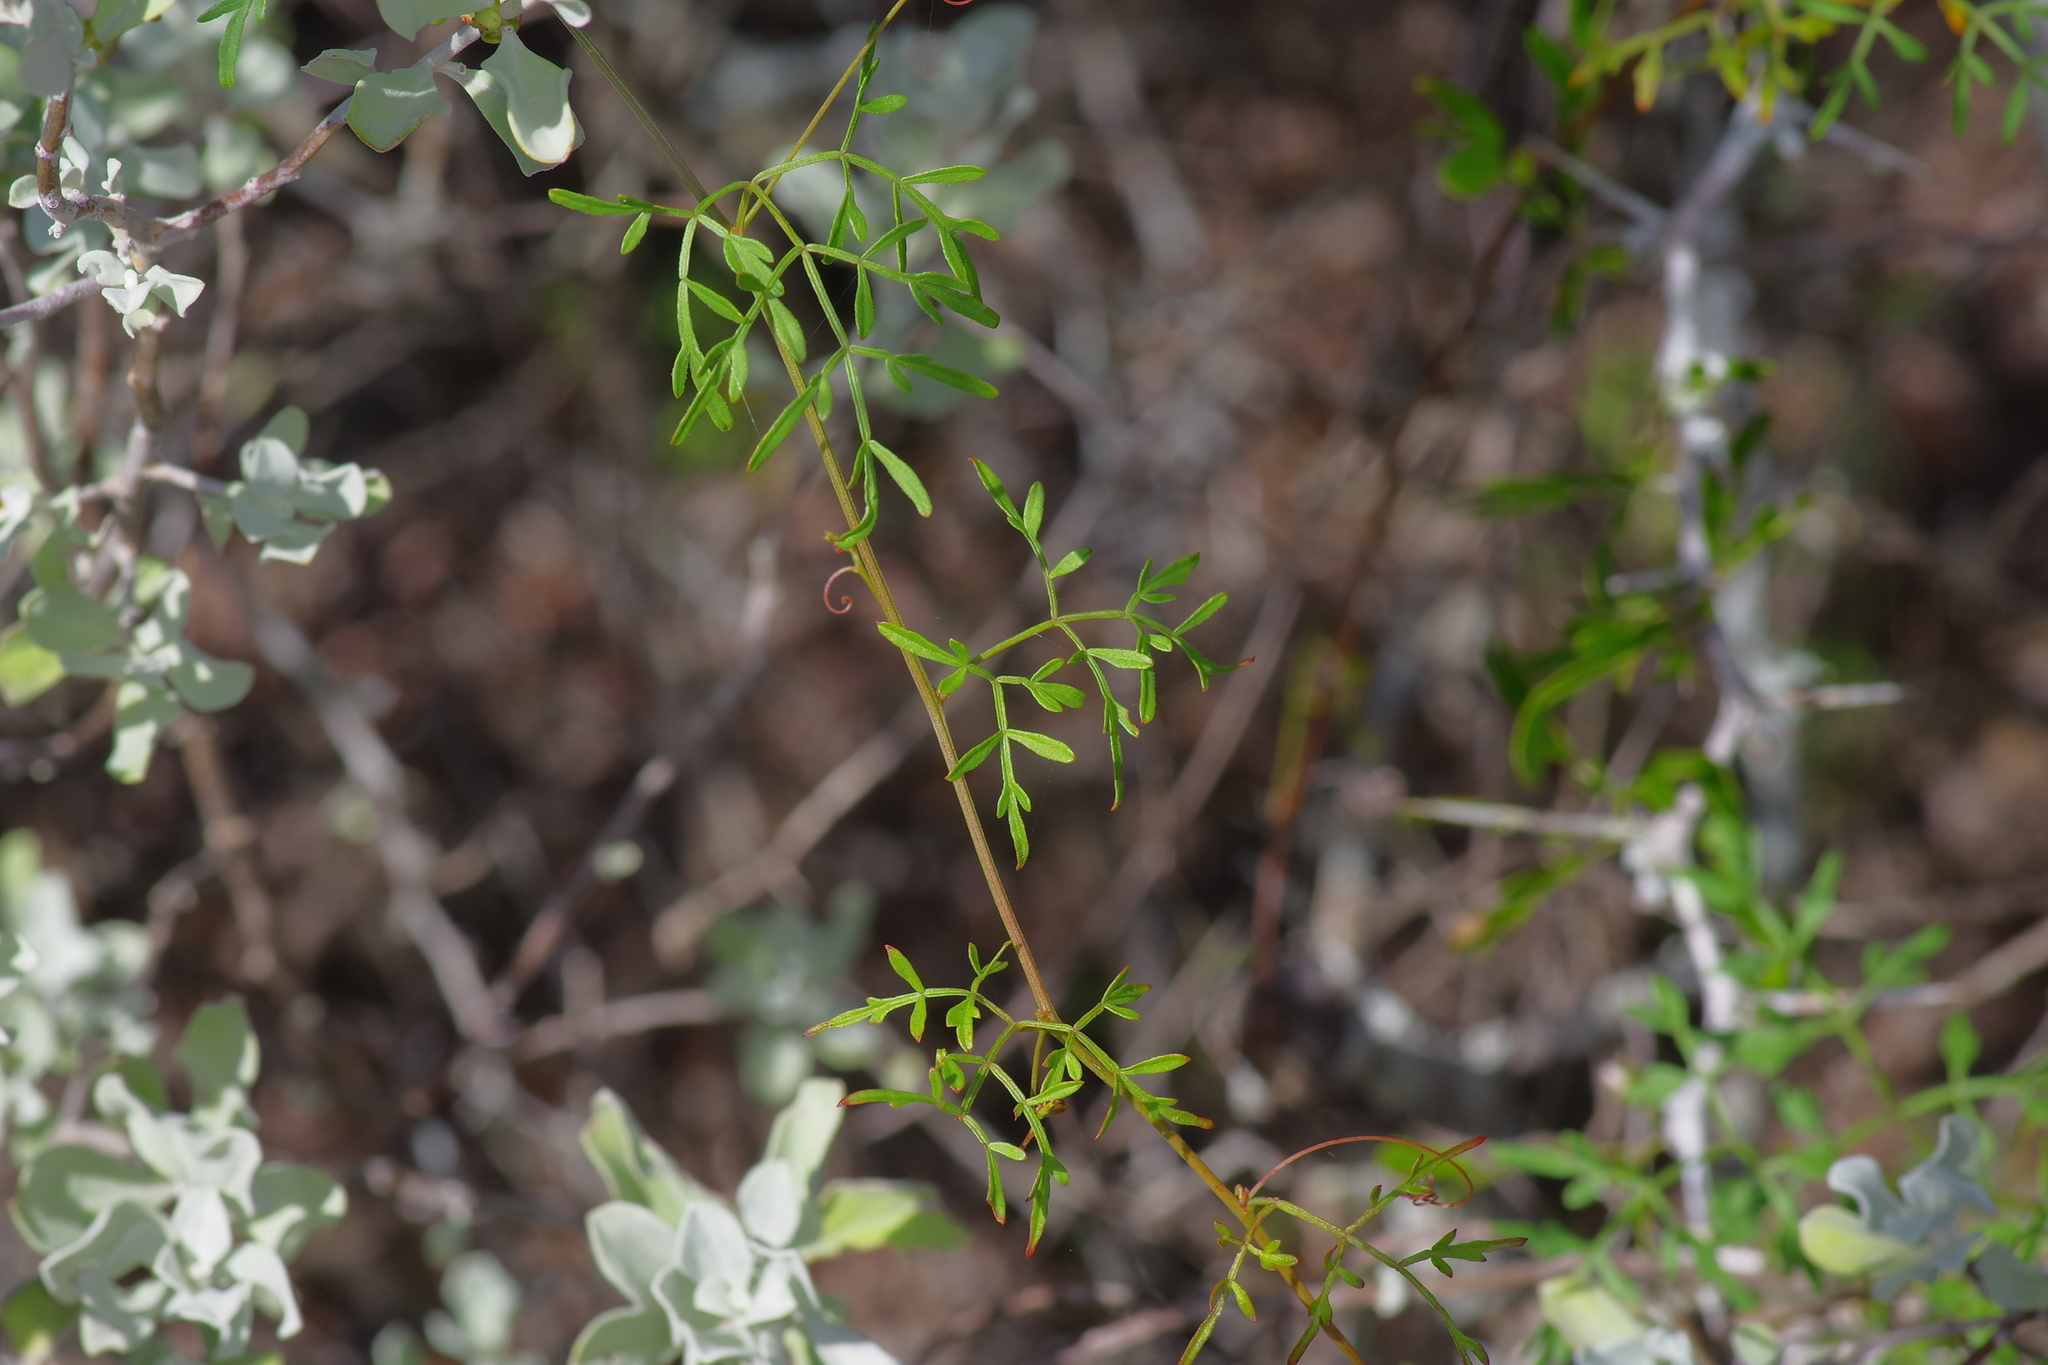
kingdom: Plantae
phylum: Tracheophyta
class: Magnoliopsida
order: Sapindales
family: Sapindaceae
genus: Serjania
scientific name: Serjania dissecta
